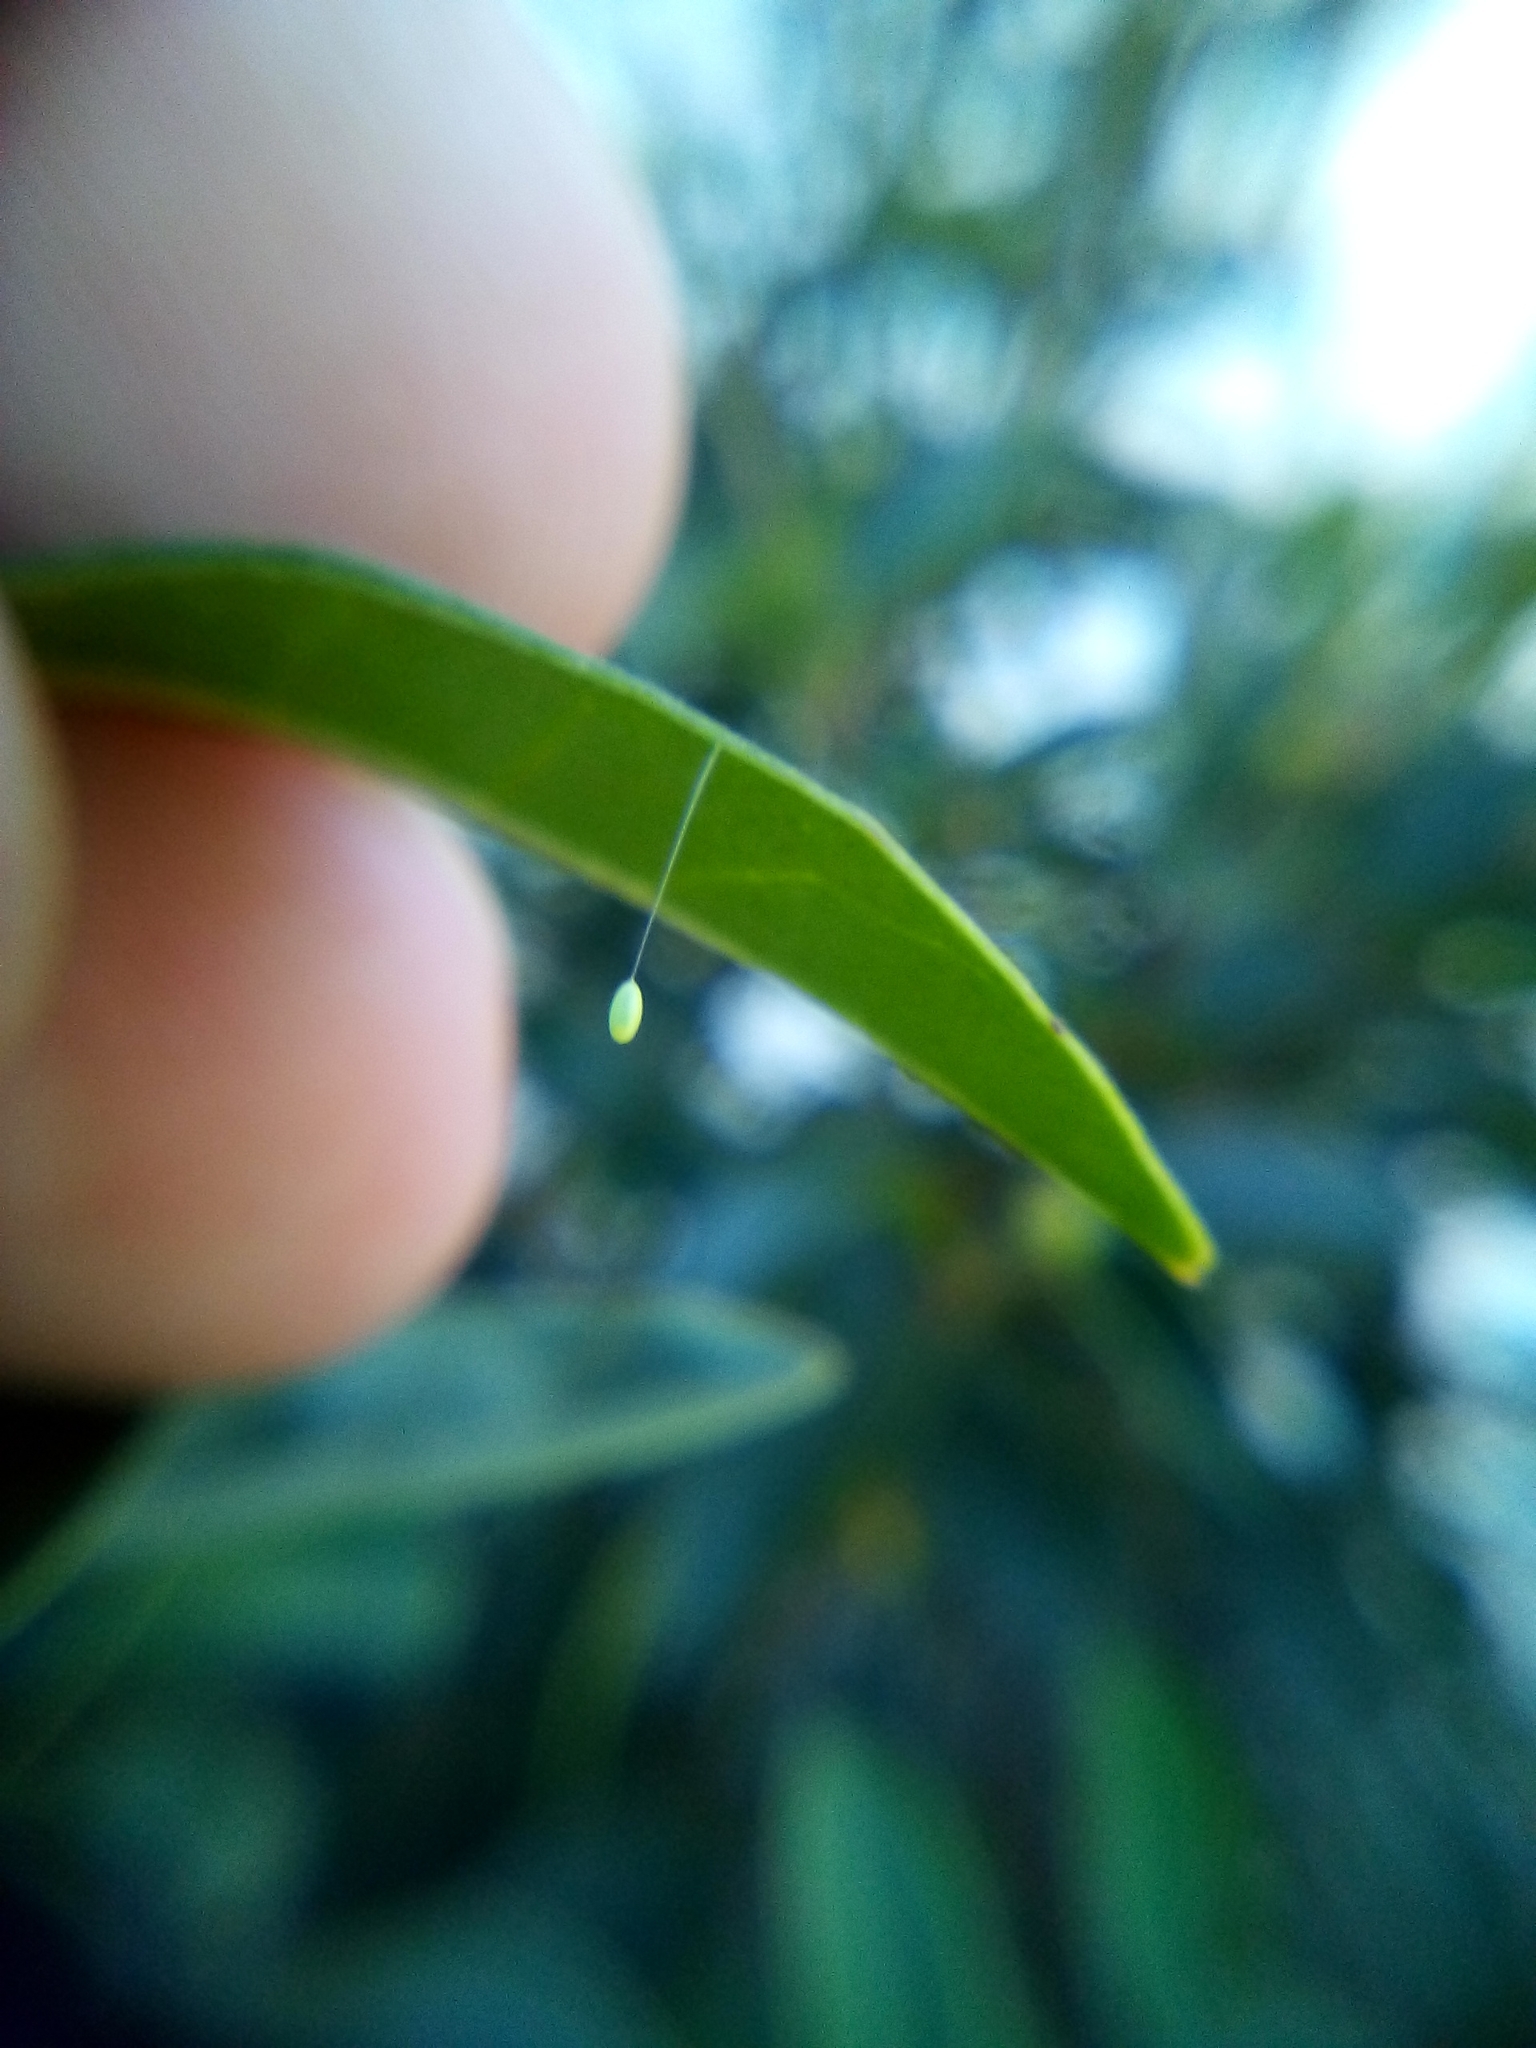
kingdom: Animalia
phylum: Arthropoda
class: Insecta
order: Neuroptera
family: Chrysopidae
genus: Mallada
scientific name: Mallada basalis
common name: Green lacewing
